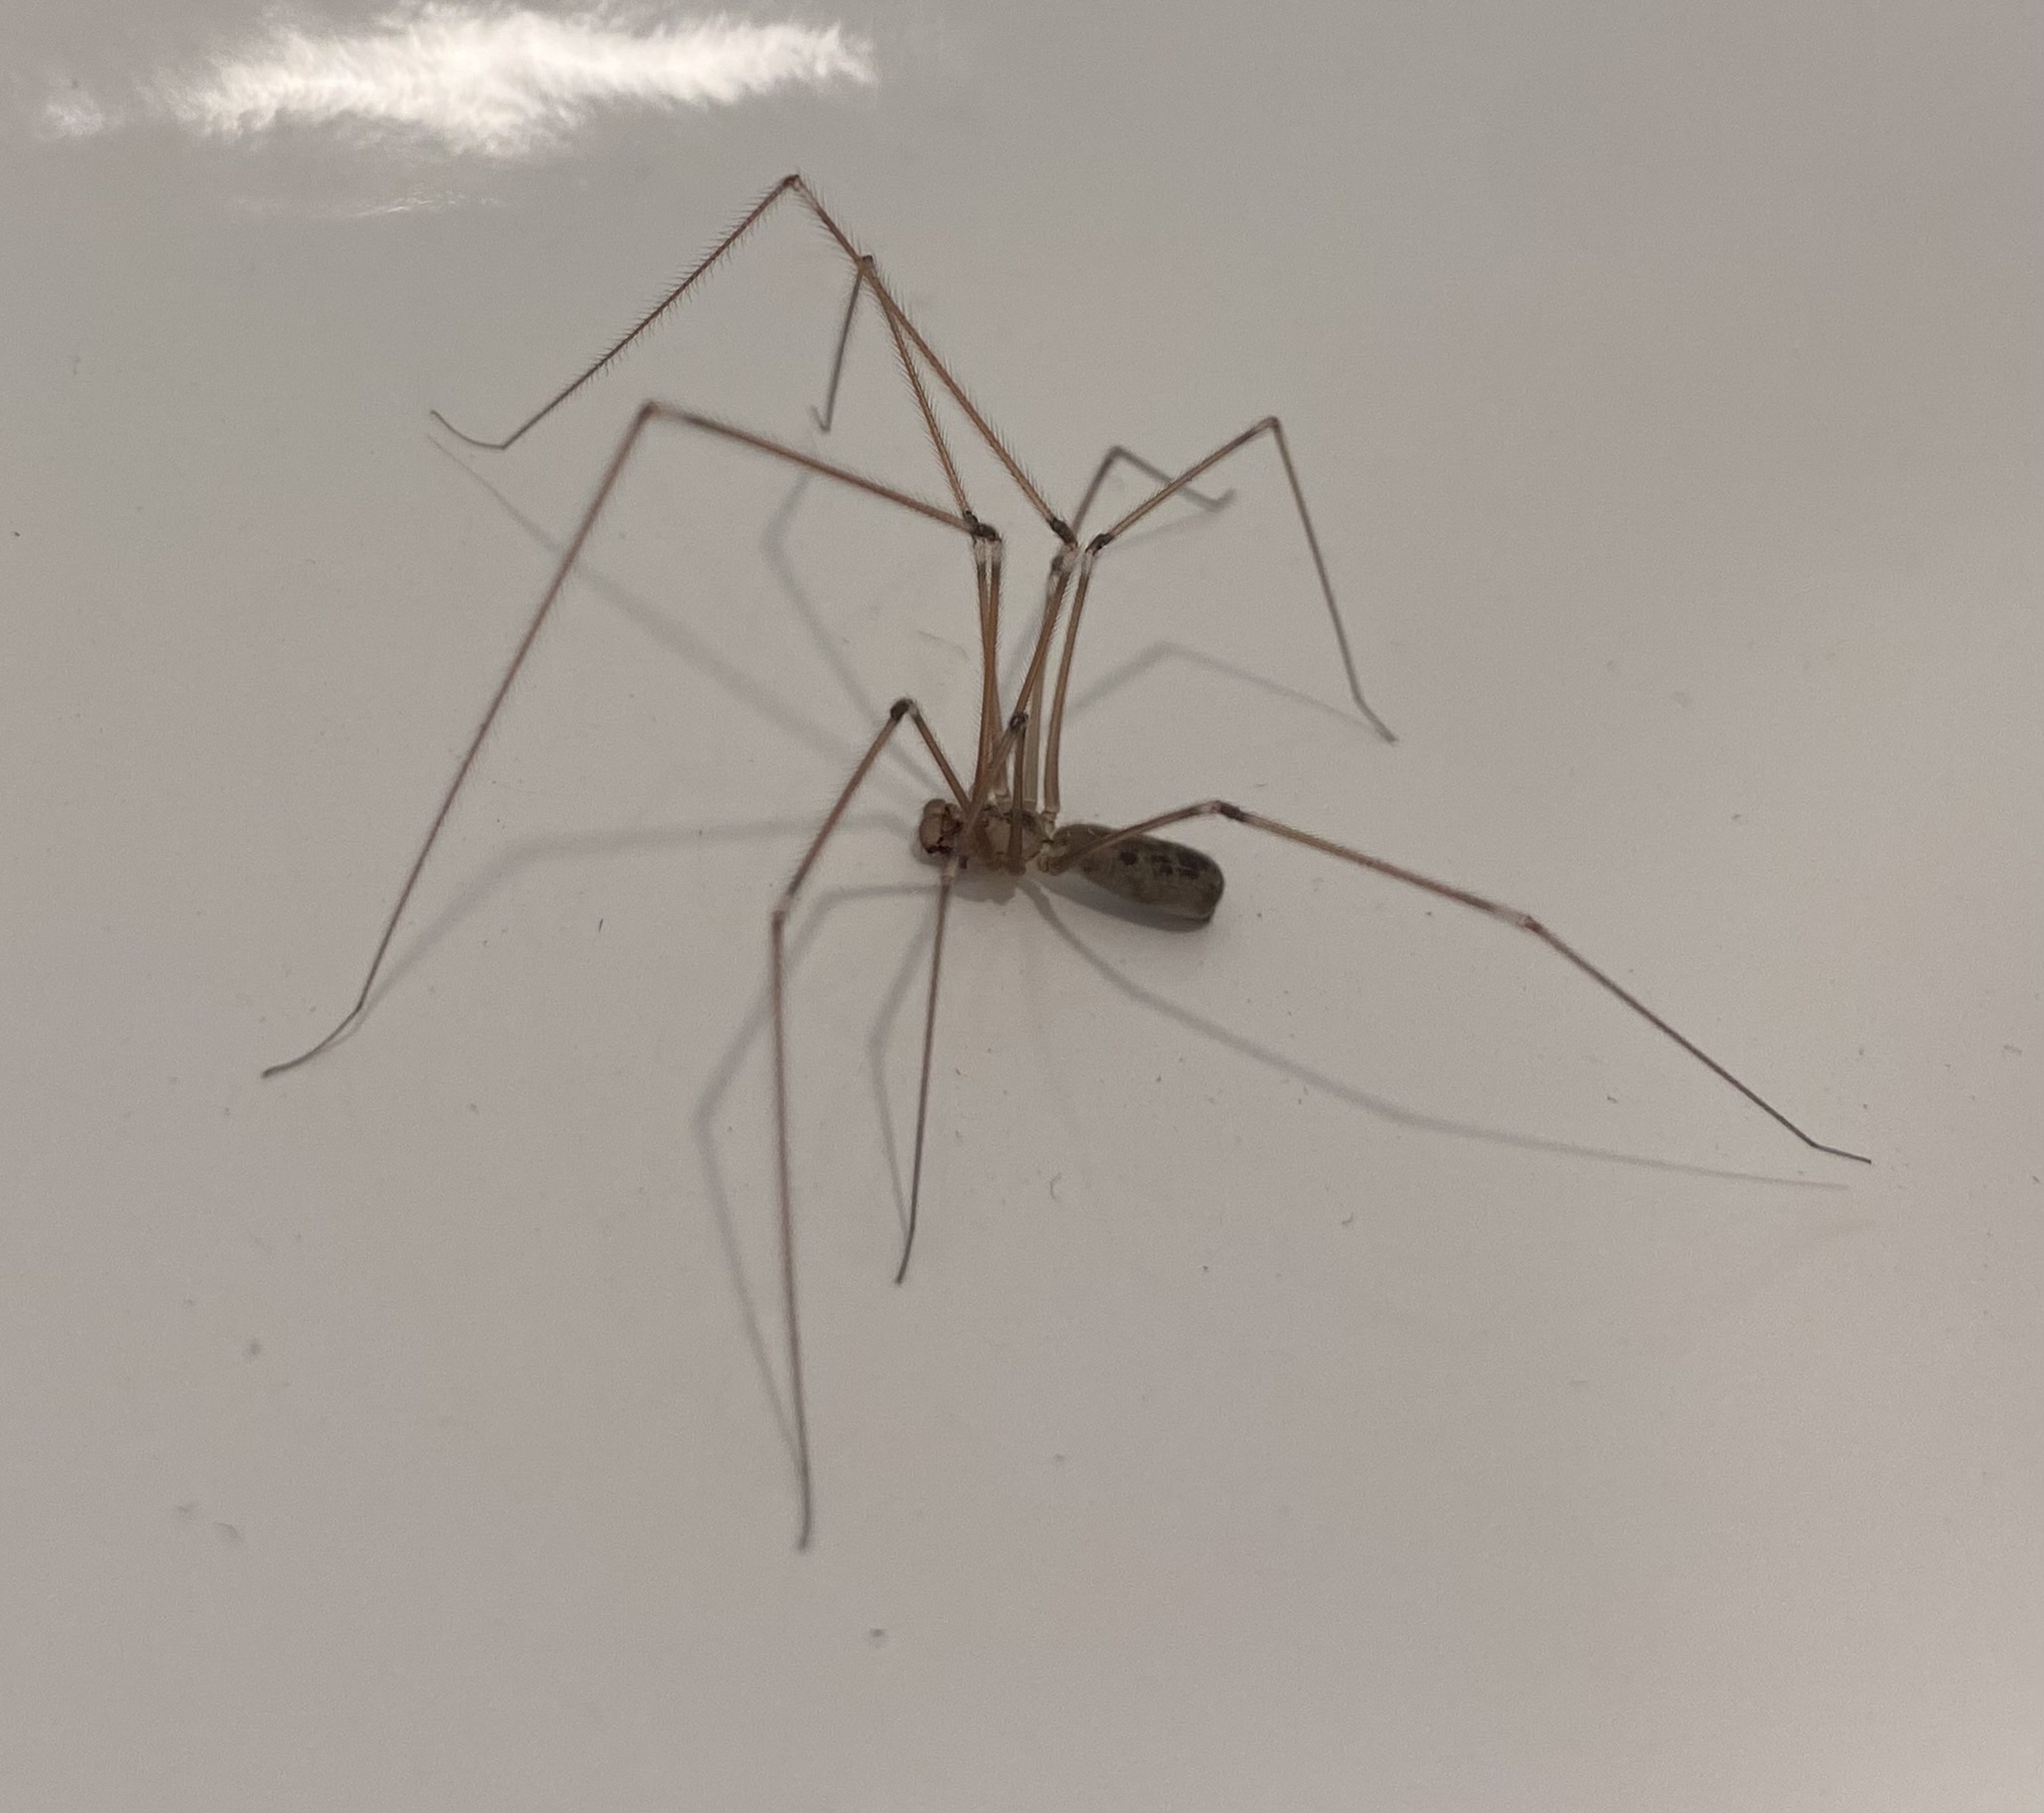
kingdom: Animalia
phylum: Arthropoda
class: Arachnida
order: Araneae
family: Pholcidae
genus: Pholcus
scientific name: Pholcus phalangioides
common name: Longbodied cellar spider
